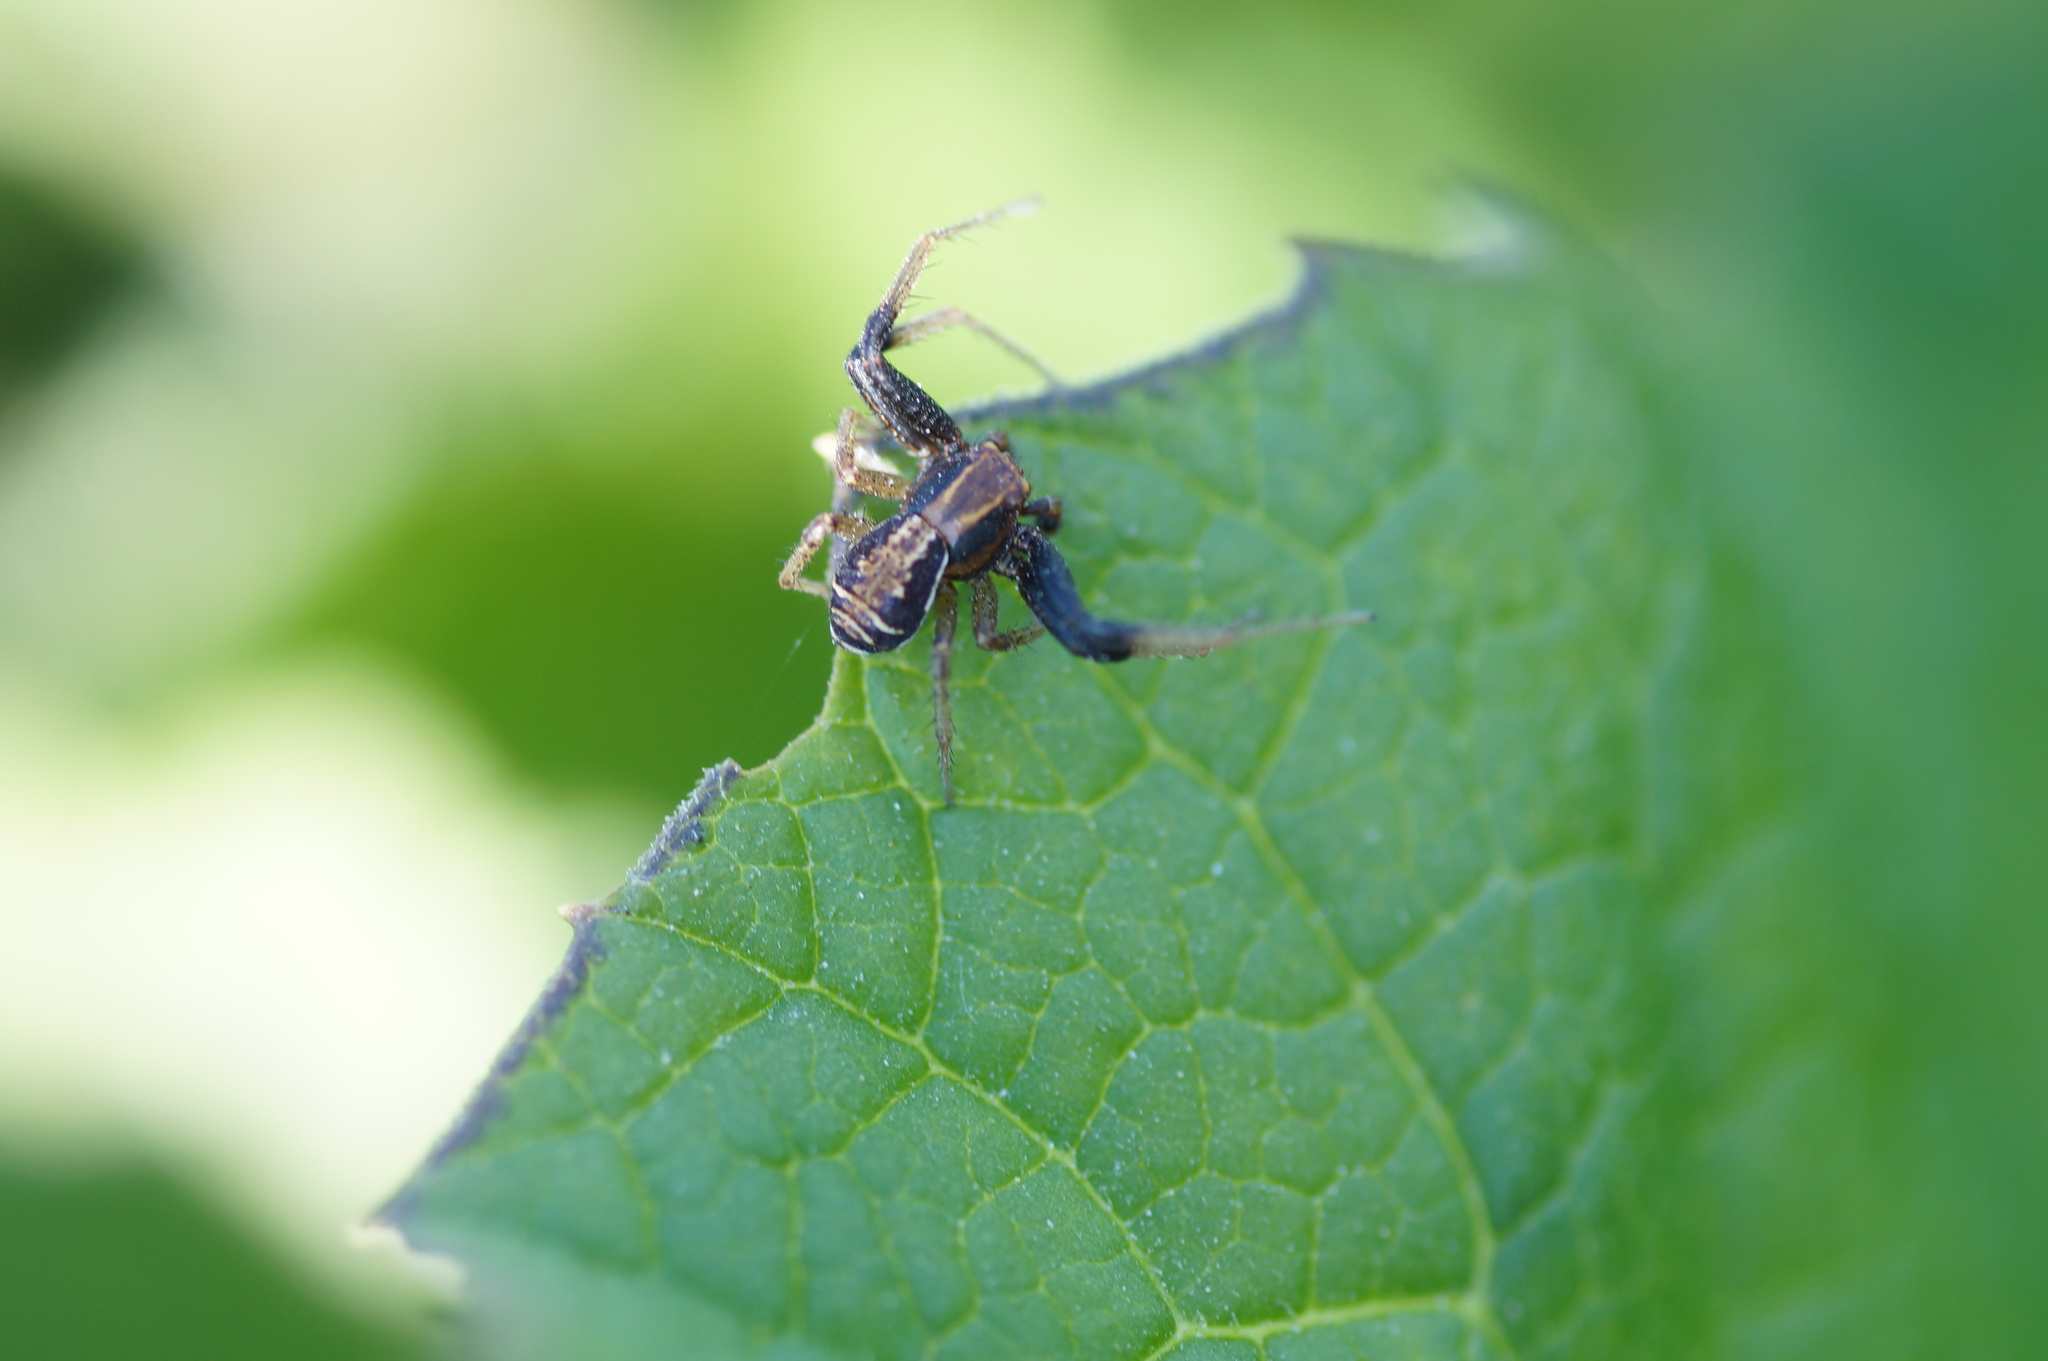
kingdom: Animalia
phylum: Arthropoda
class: Arachnida
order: Araneae
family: Thomisidae
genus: Xysticus
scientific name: Xysticus ulmi
